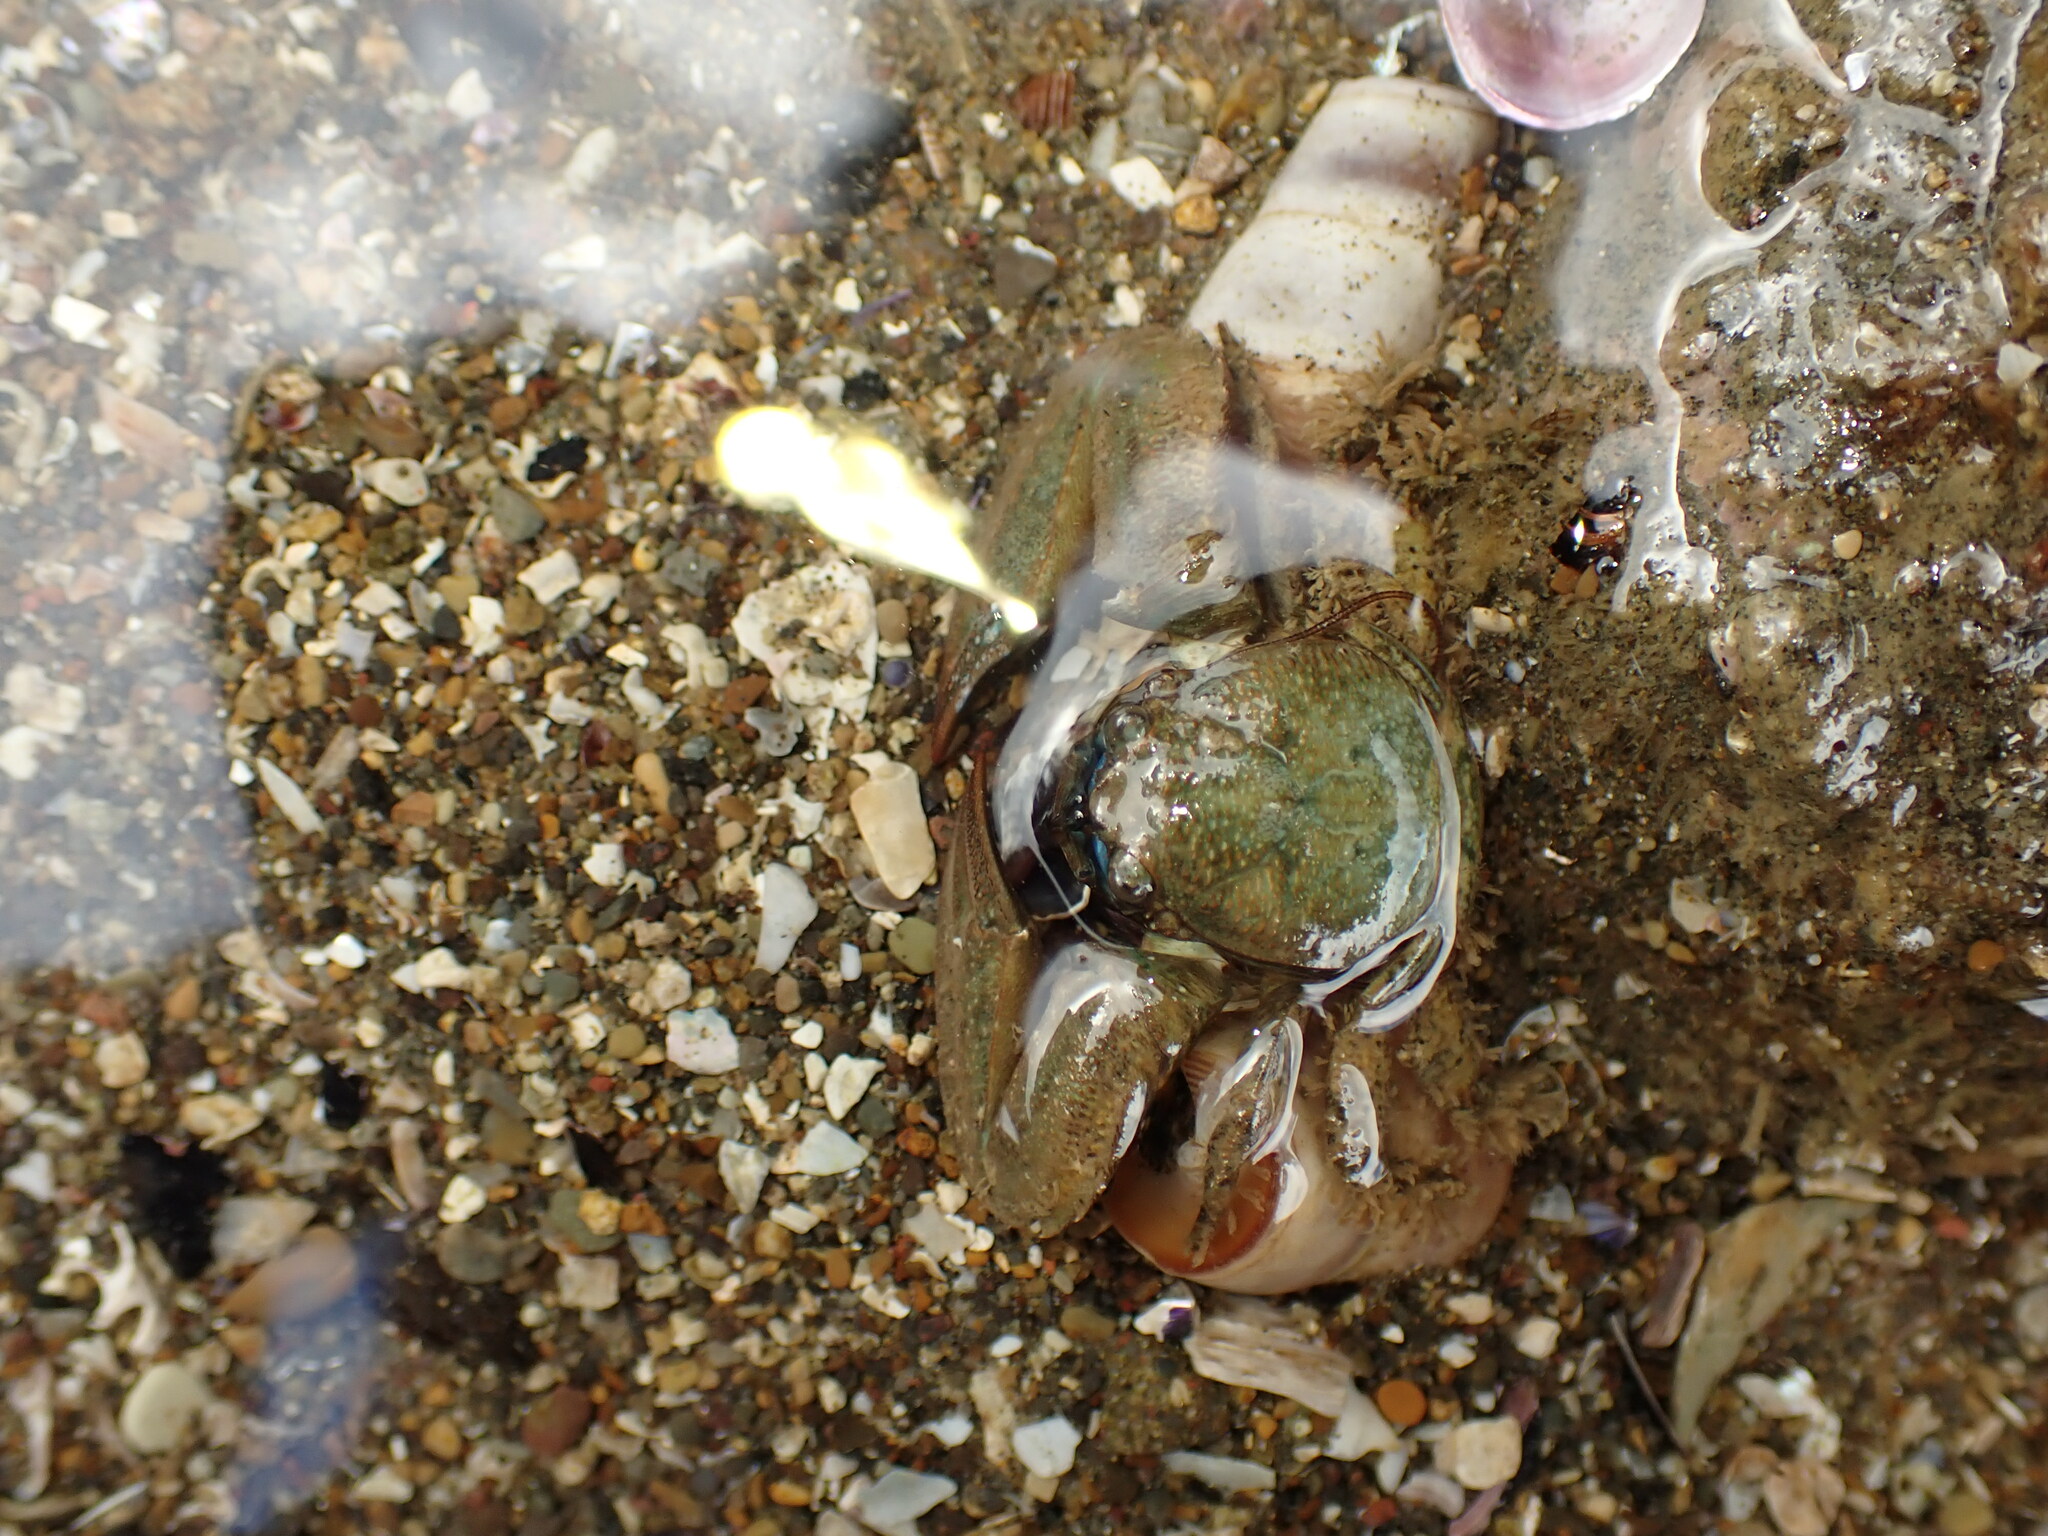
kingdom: Animalia
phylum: Arthropoda
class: Malacostraca
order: Decapoda
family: Porcellanidae
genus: Petrolisthes
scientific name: Petrolisthes elongatus
